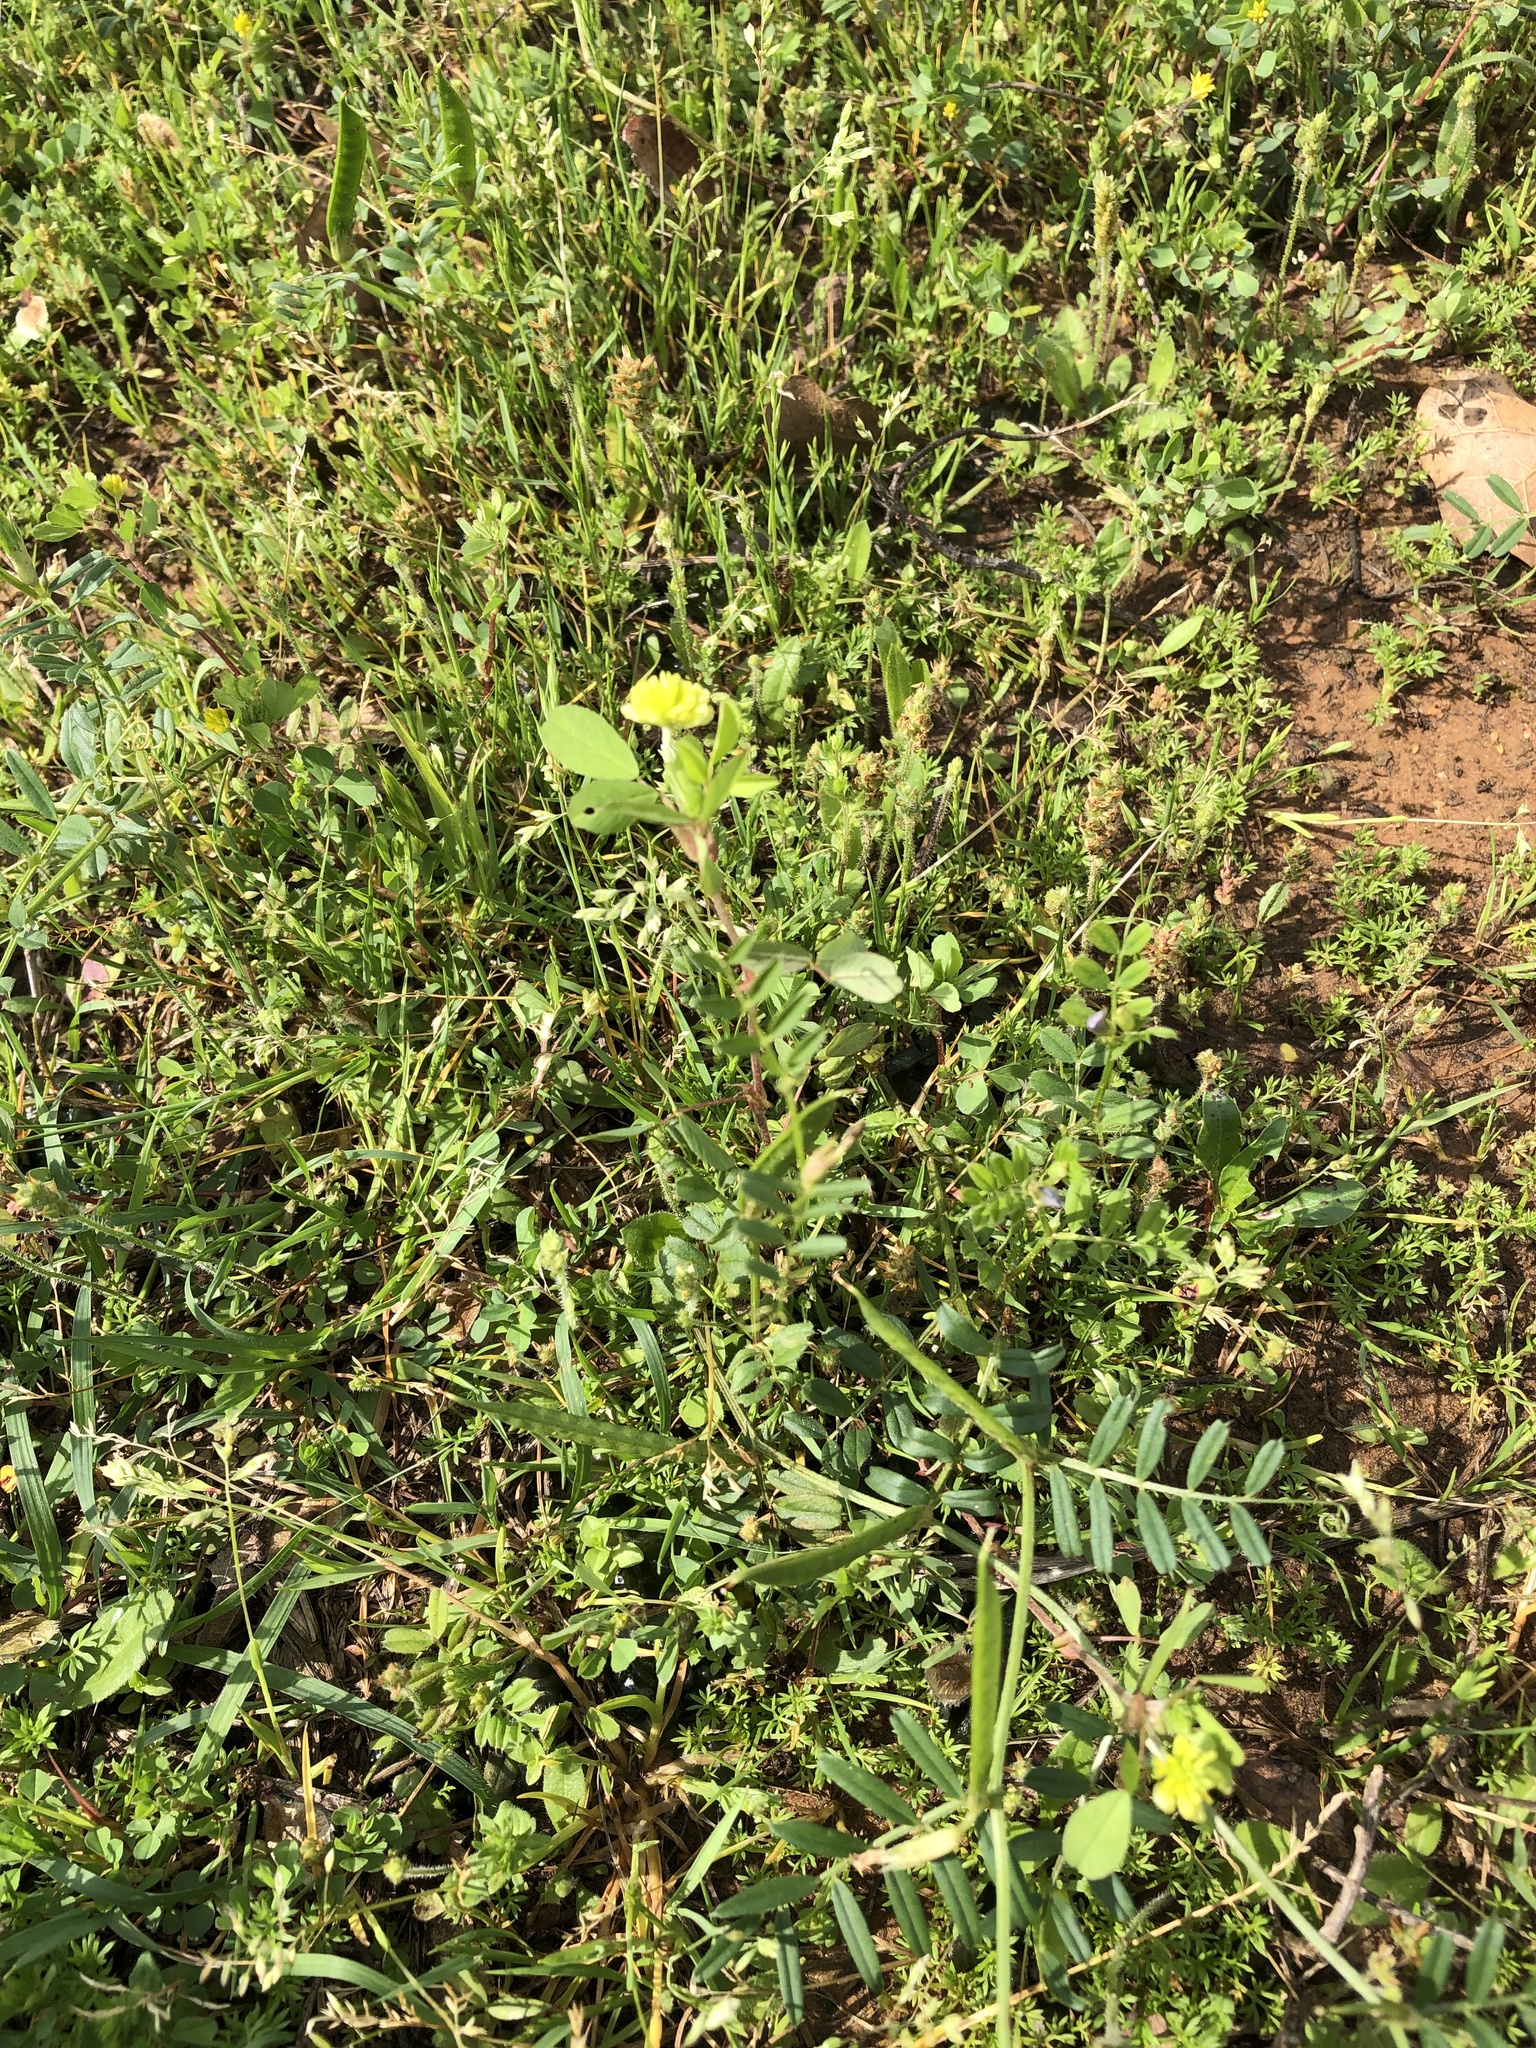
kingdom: Plantae
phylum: Tracheophyta
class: Magnoliopsida
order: Fabales
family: Fabaceae
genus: Trifolium
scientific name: Trifolium campestre
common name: Field clover
